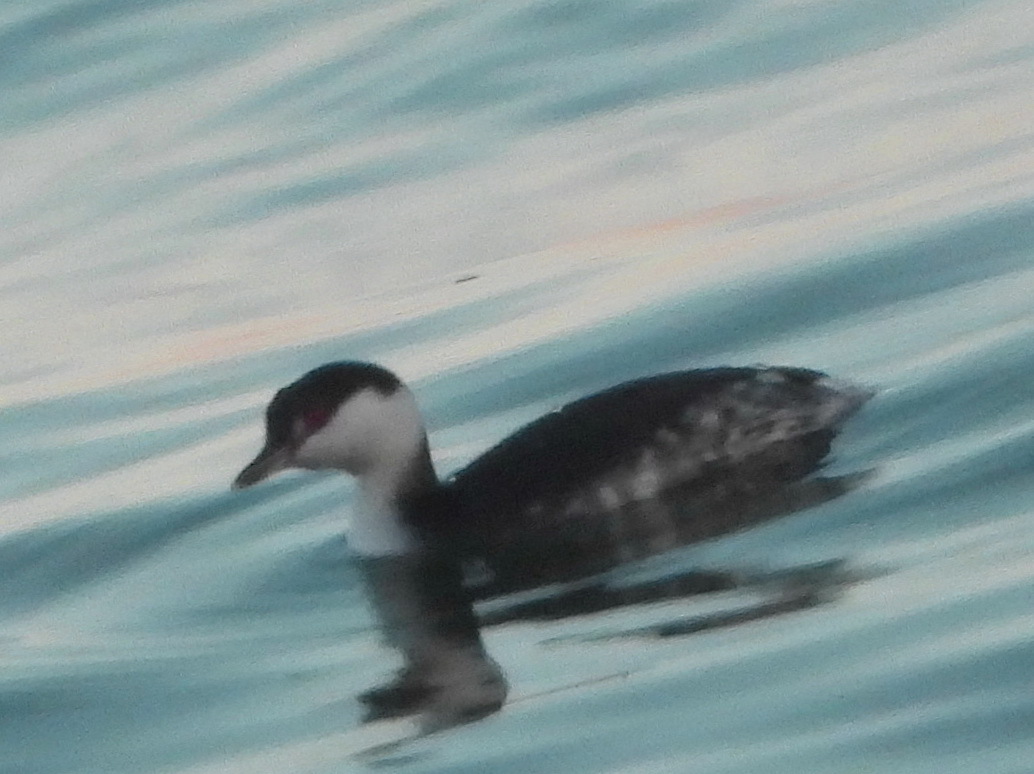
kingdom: Animalia
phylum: Chordata
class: Aves
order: Podicipediformes
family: Podicipedidae
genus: Podiceps
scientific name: Podiceps auritus
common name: Horned grebe
